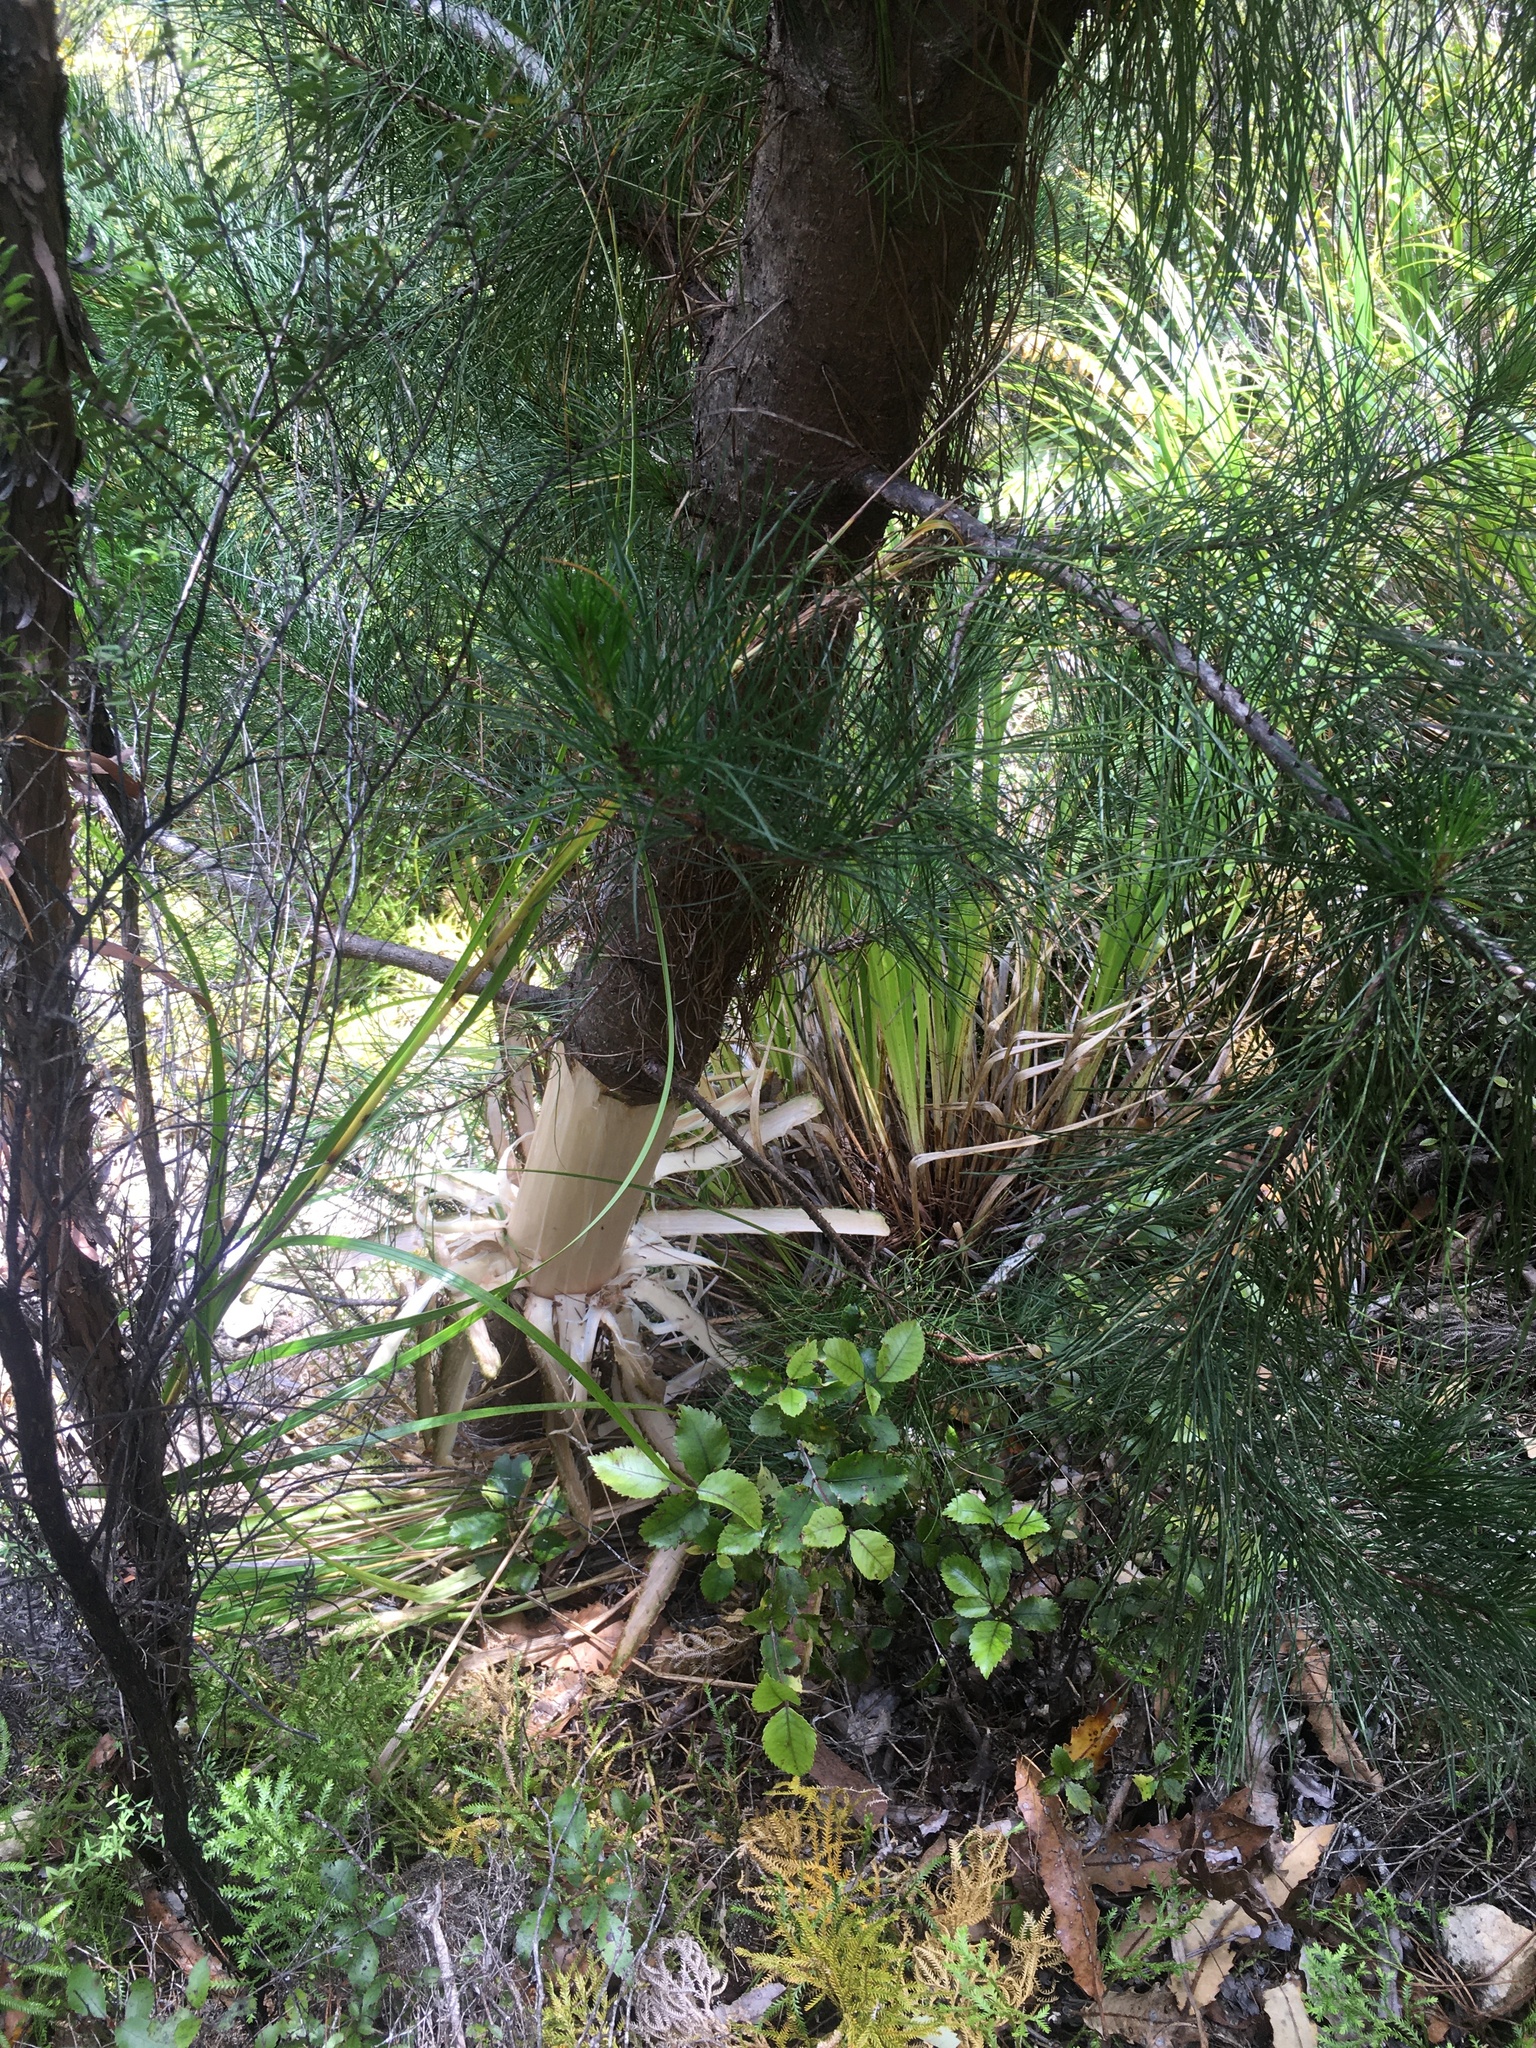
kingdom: Plantae
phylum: Tracheophyta
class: Pinopsida
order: Pinales
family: Pinaceae
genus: Pinus
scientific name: Pinus radiata
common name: Monterey pine
